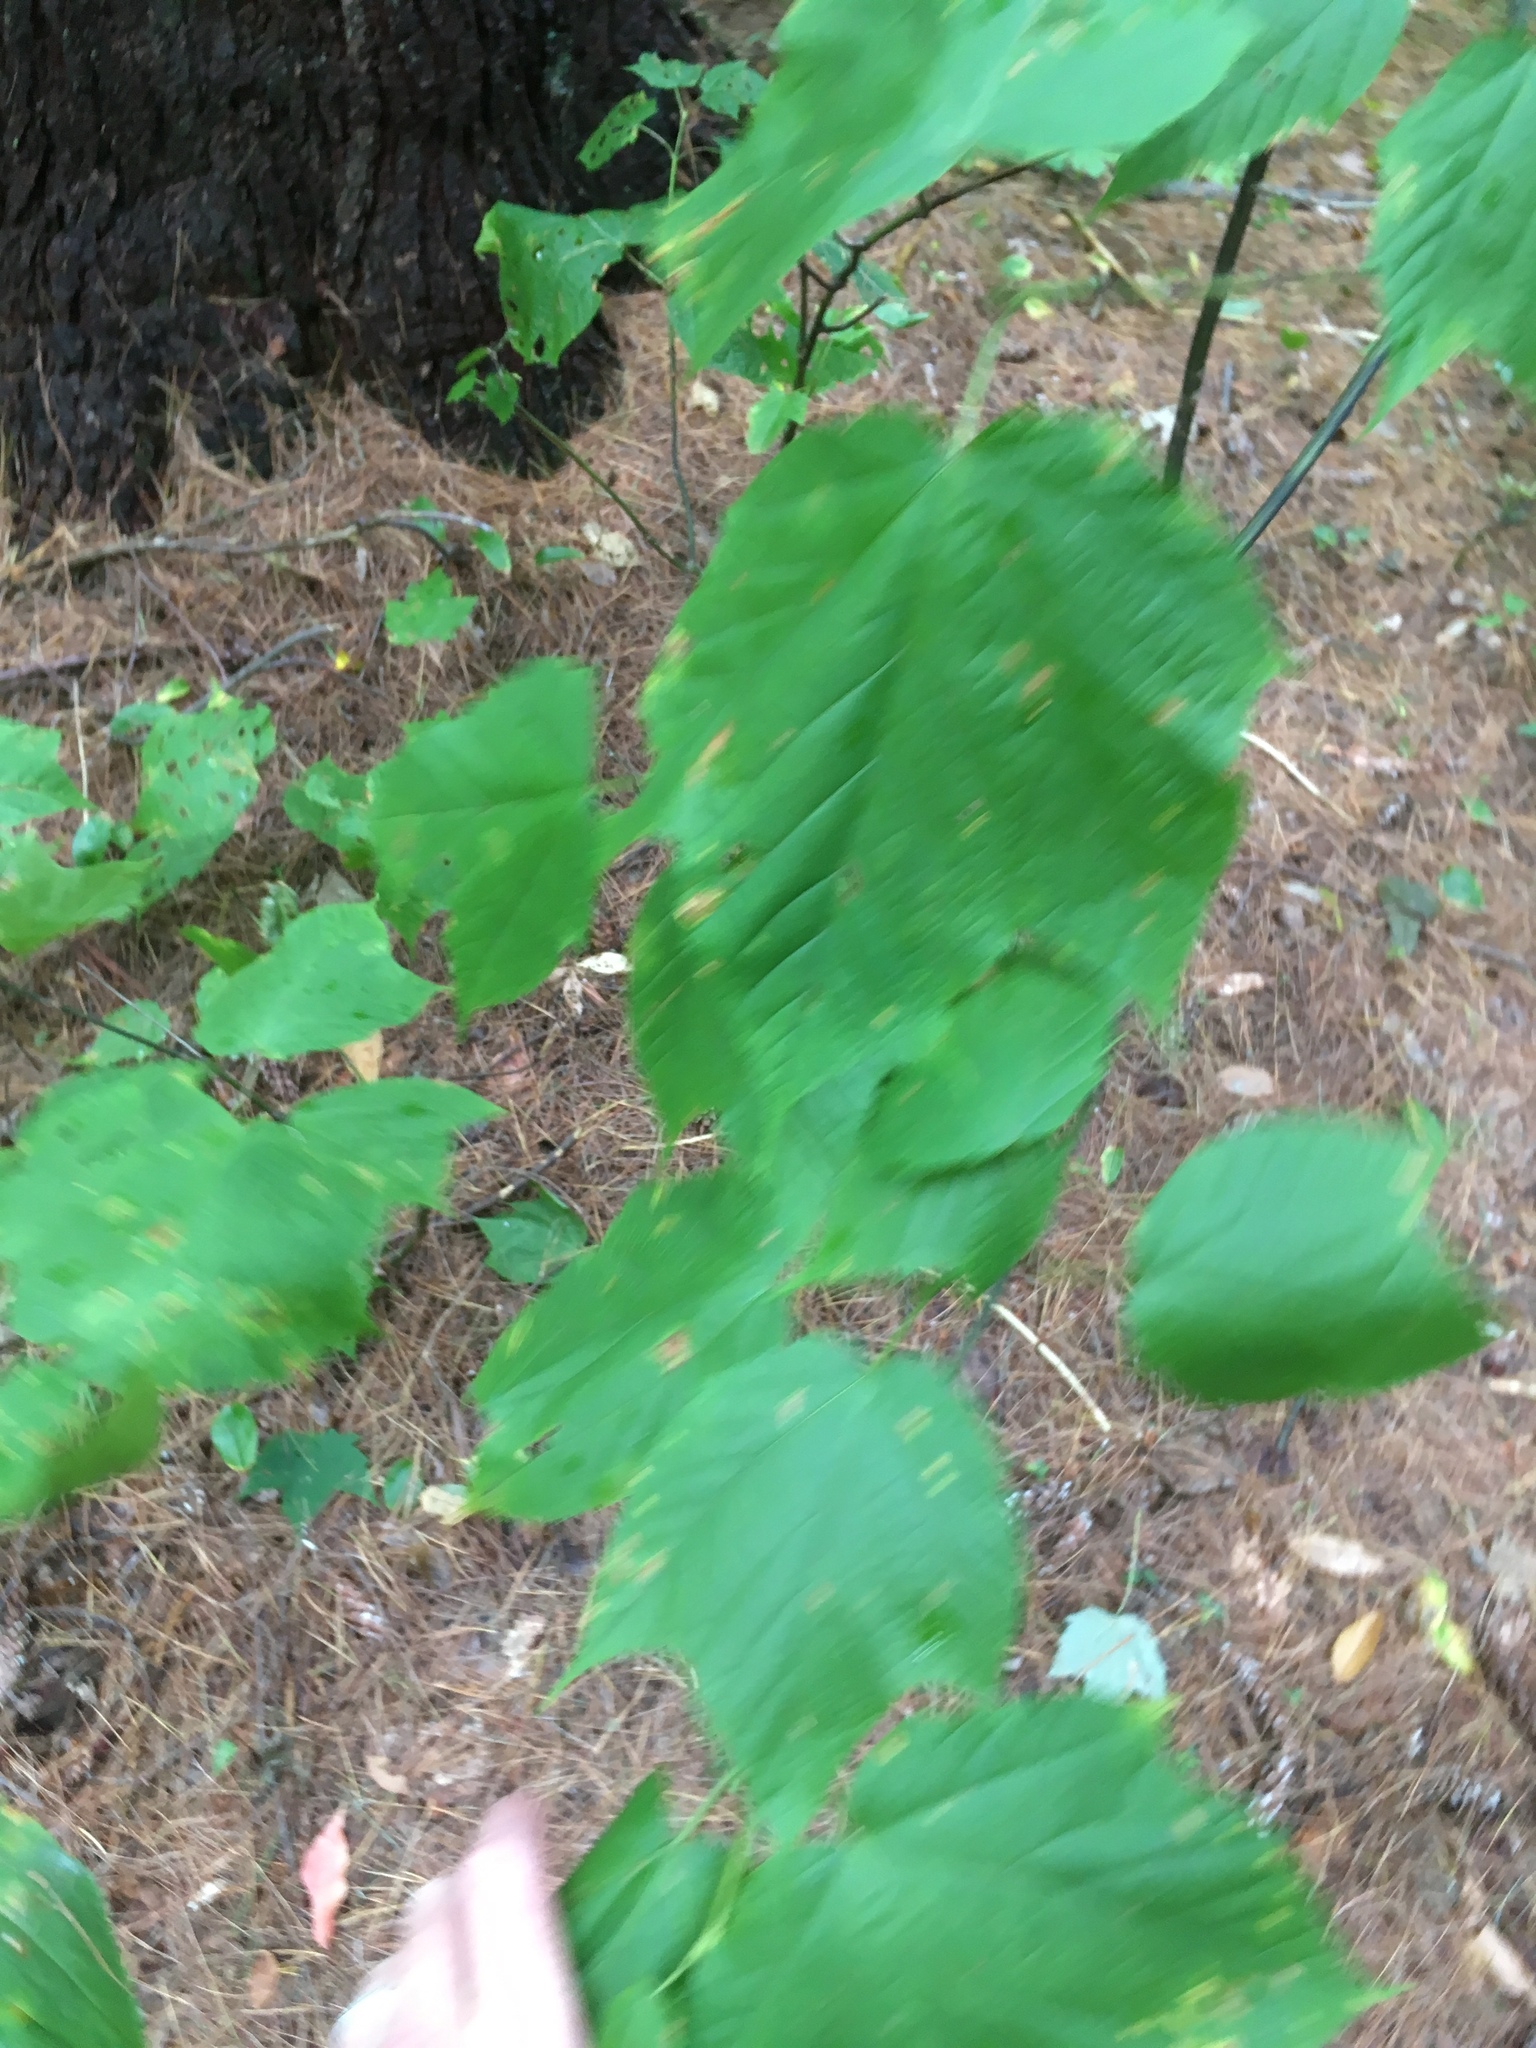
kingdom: Plantae
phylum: Tracheophyta
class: Magnoliopsida
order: Sapindales
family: Sapindaceae
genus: Acer
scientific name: Acer pensylvanicum
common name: Moosewood
